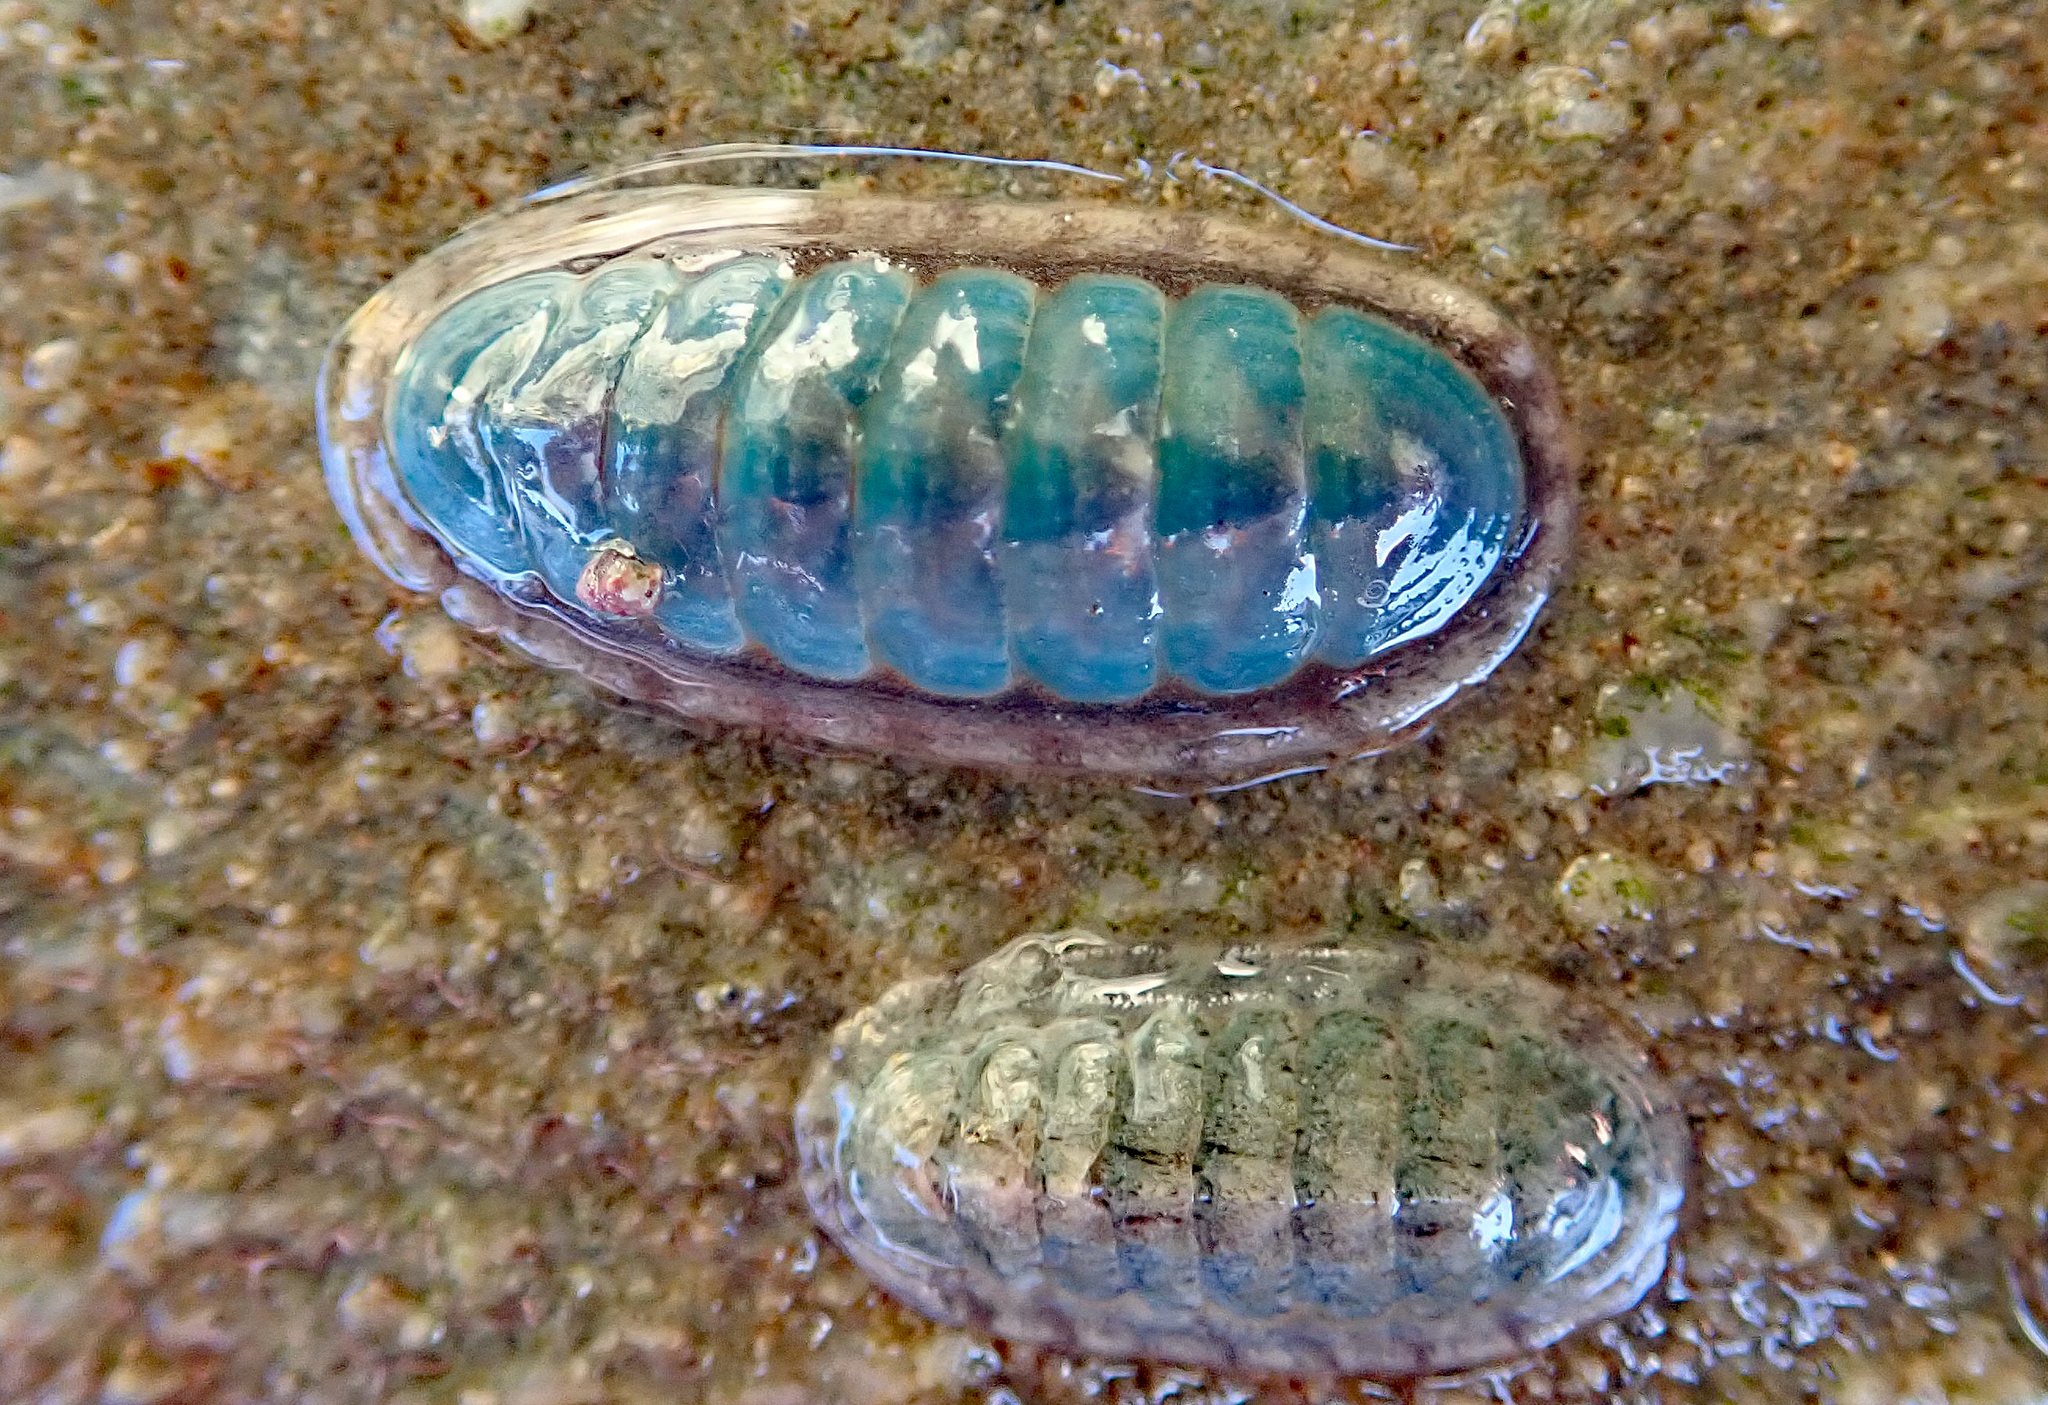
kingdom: Animalia
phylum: Mollusca
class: Polyplacophora
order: Chitonida
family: Ischnochitonidae
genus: Ischnochiton
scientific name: Ischnochiton maorianus
